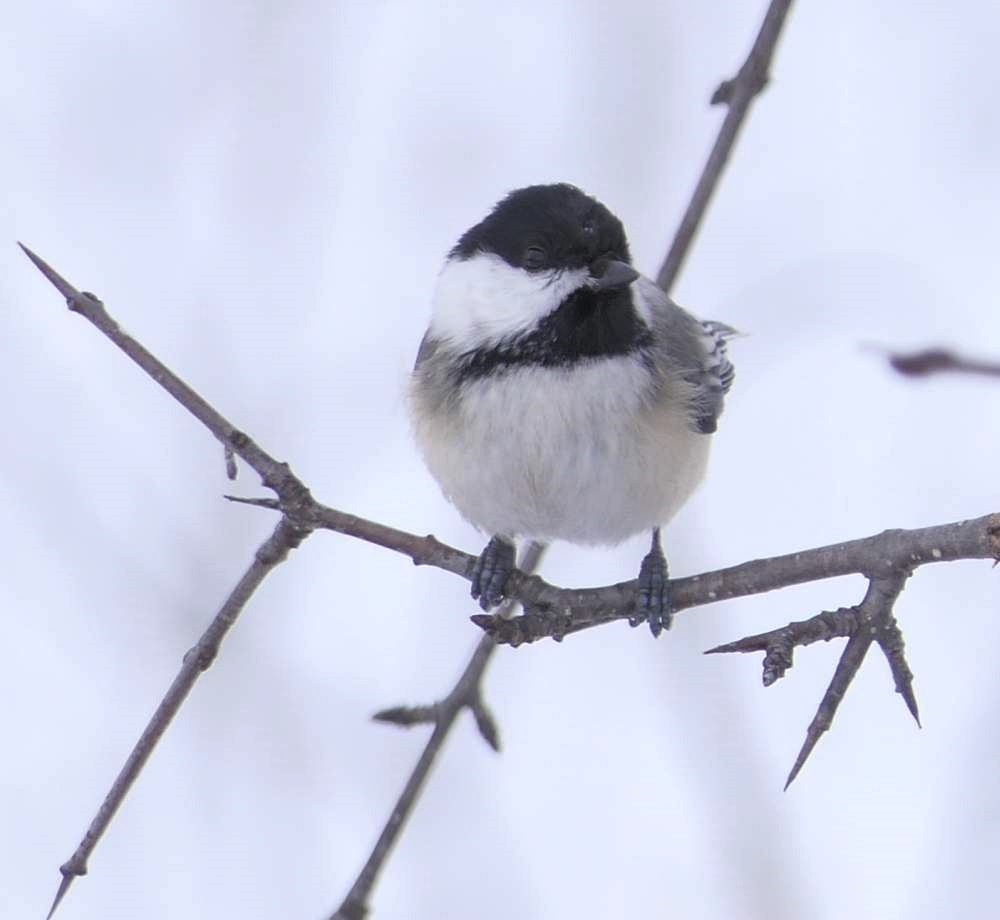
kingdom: Animalia
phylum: Chordata
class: Aves
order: Passeriformes
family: Paridae
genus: Poecile
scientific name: Poecile atricapillus
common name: Black-capped chickadee
